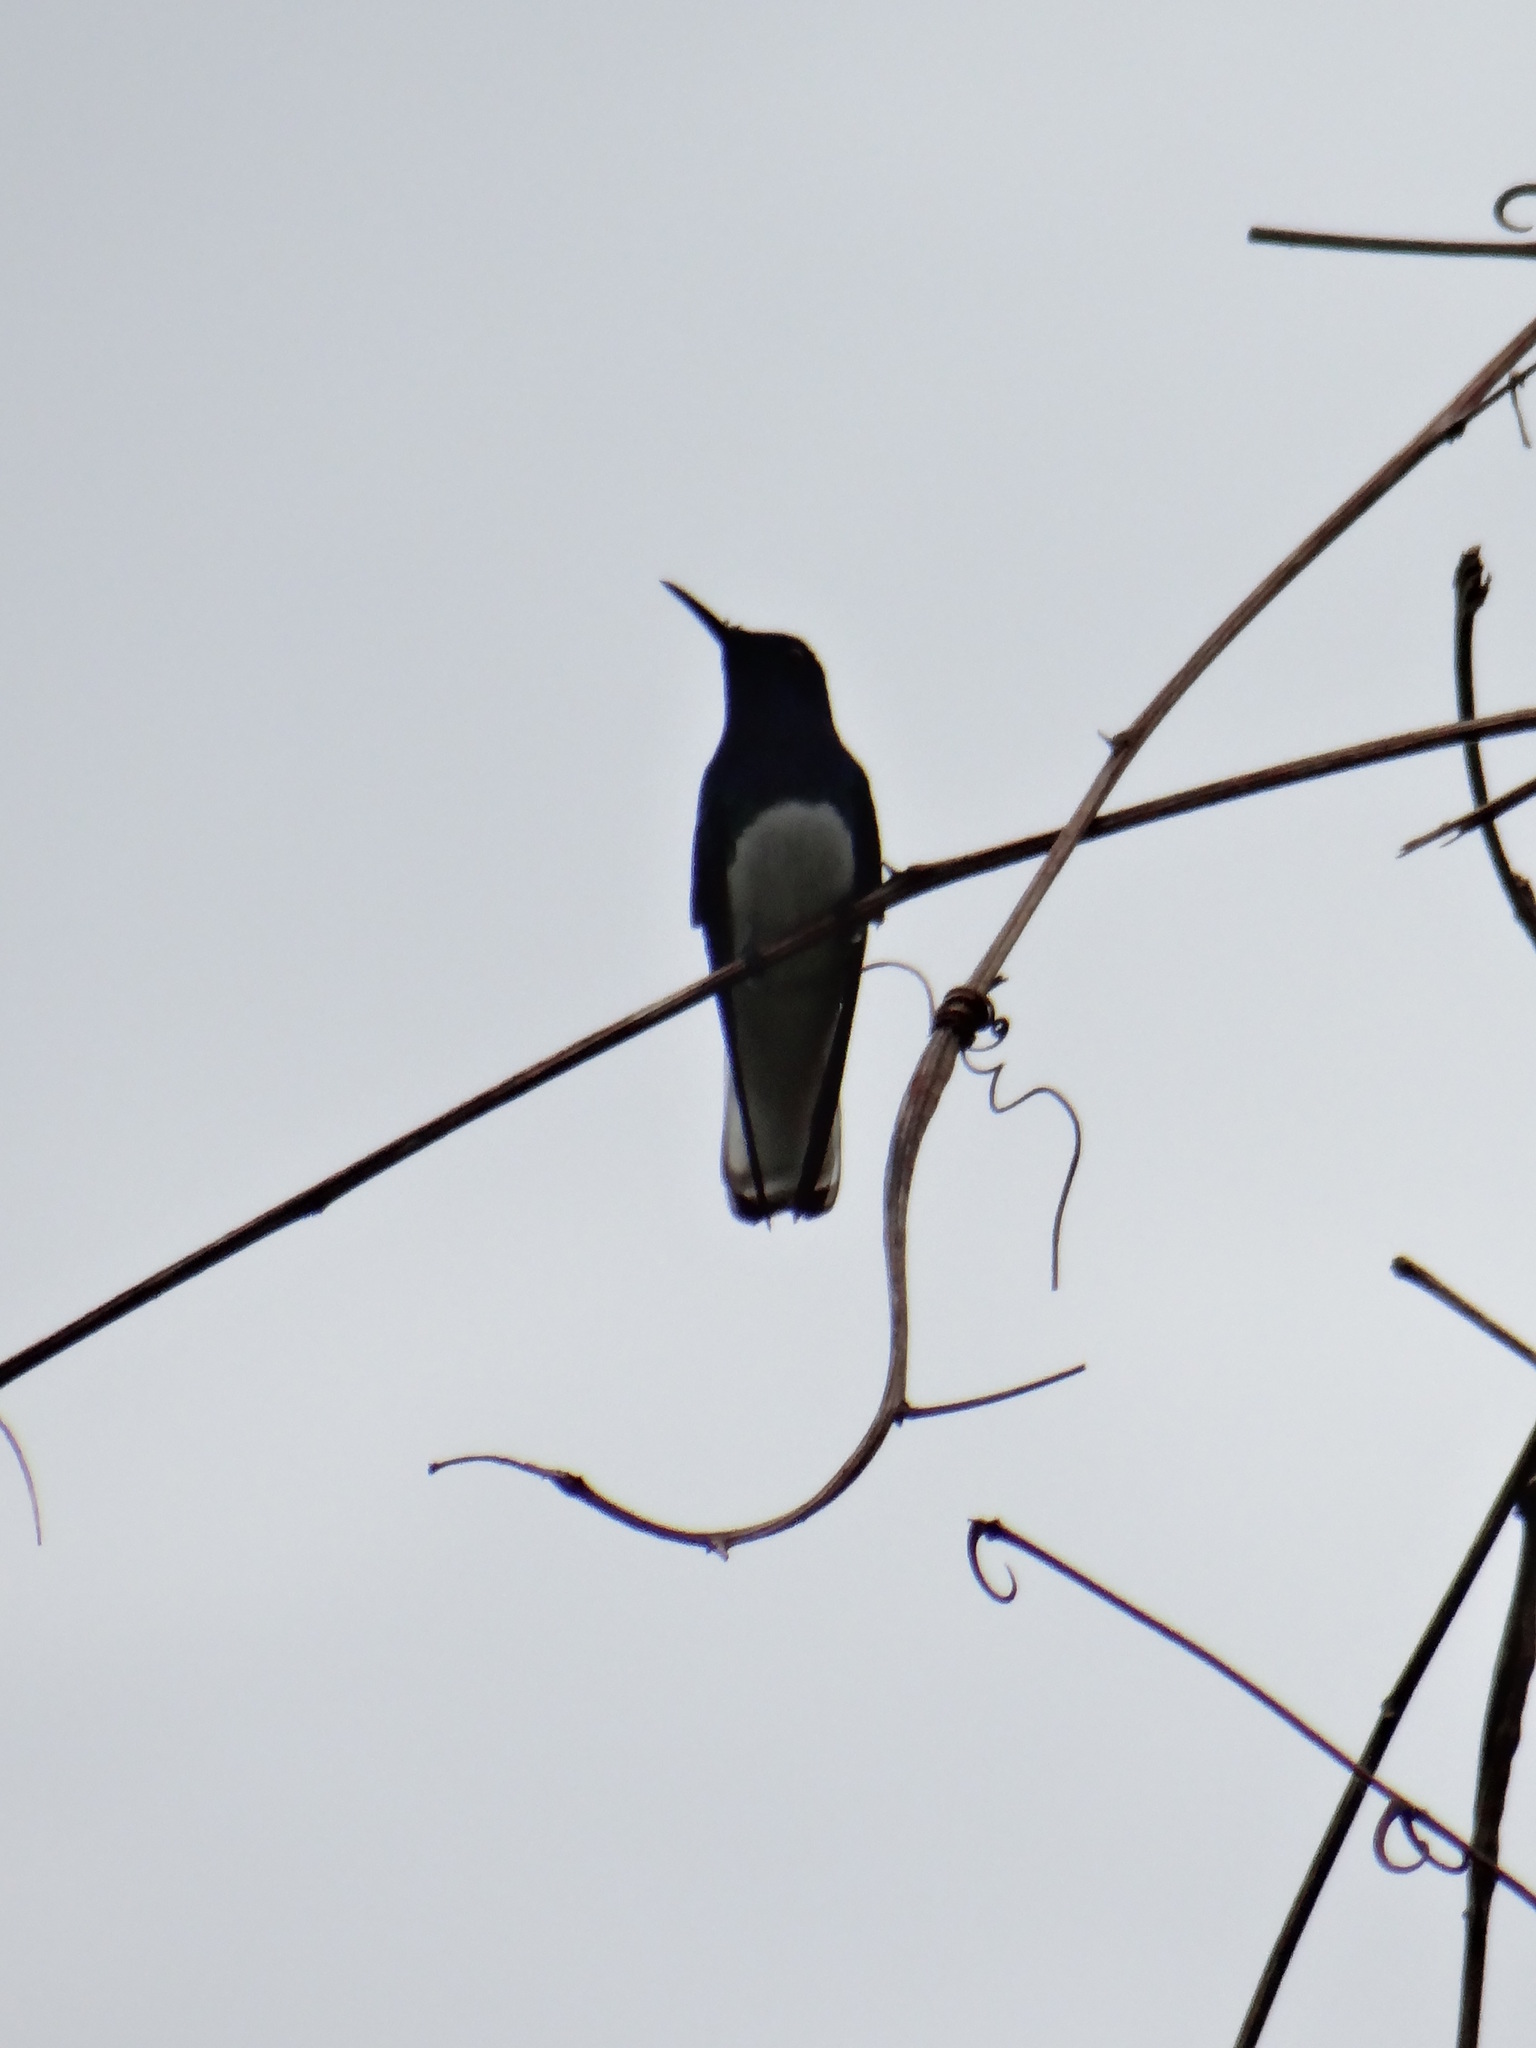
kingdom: Animalia
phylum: Chordata
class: Aves
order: Apodiformes
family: Trochilidae
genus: Florisuga
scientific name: Florisuga mellivora
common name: White-necked jacobin
